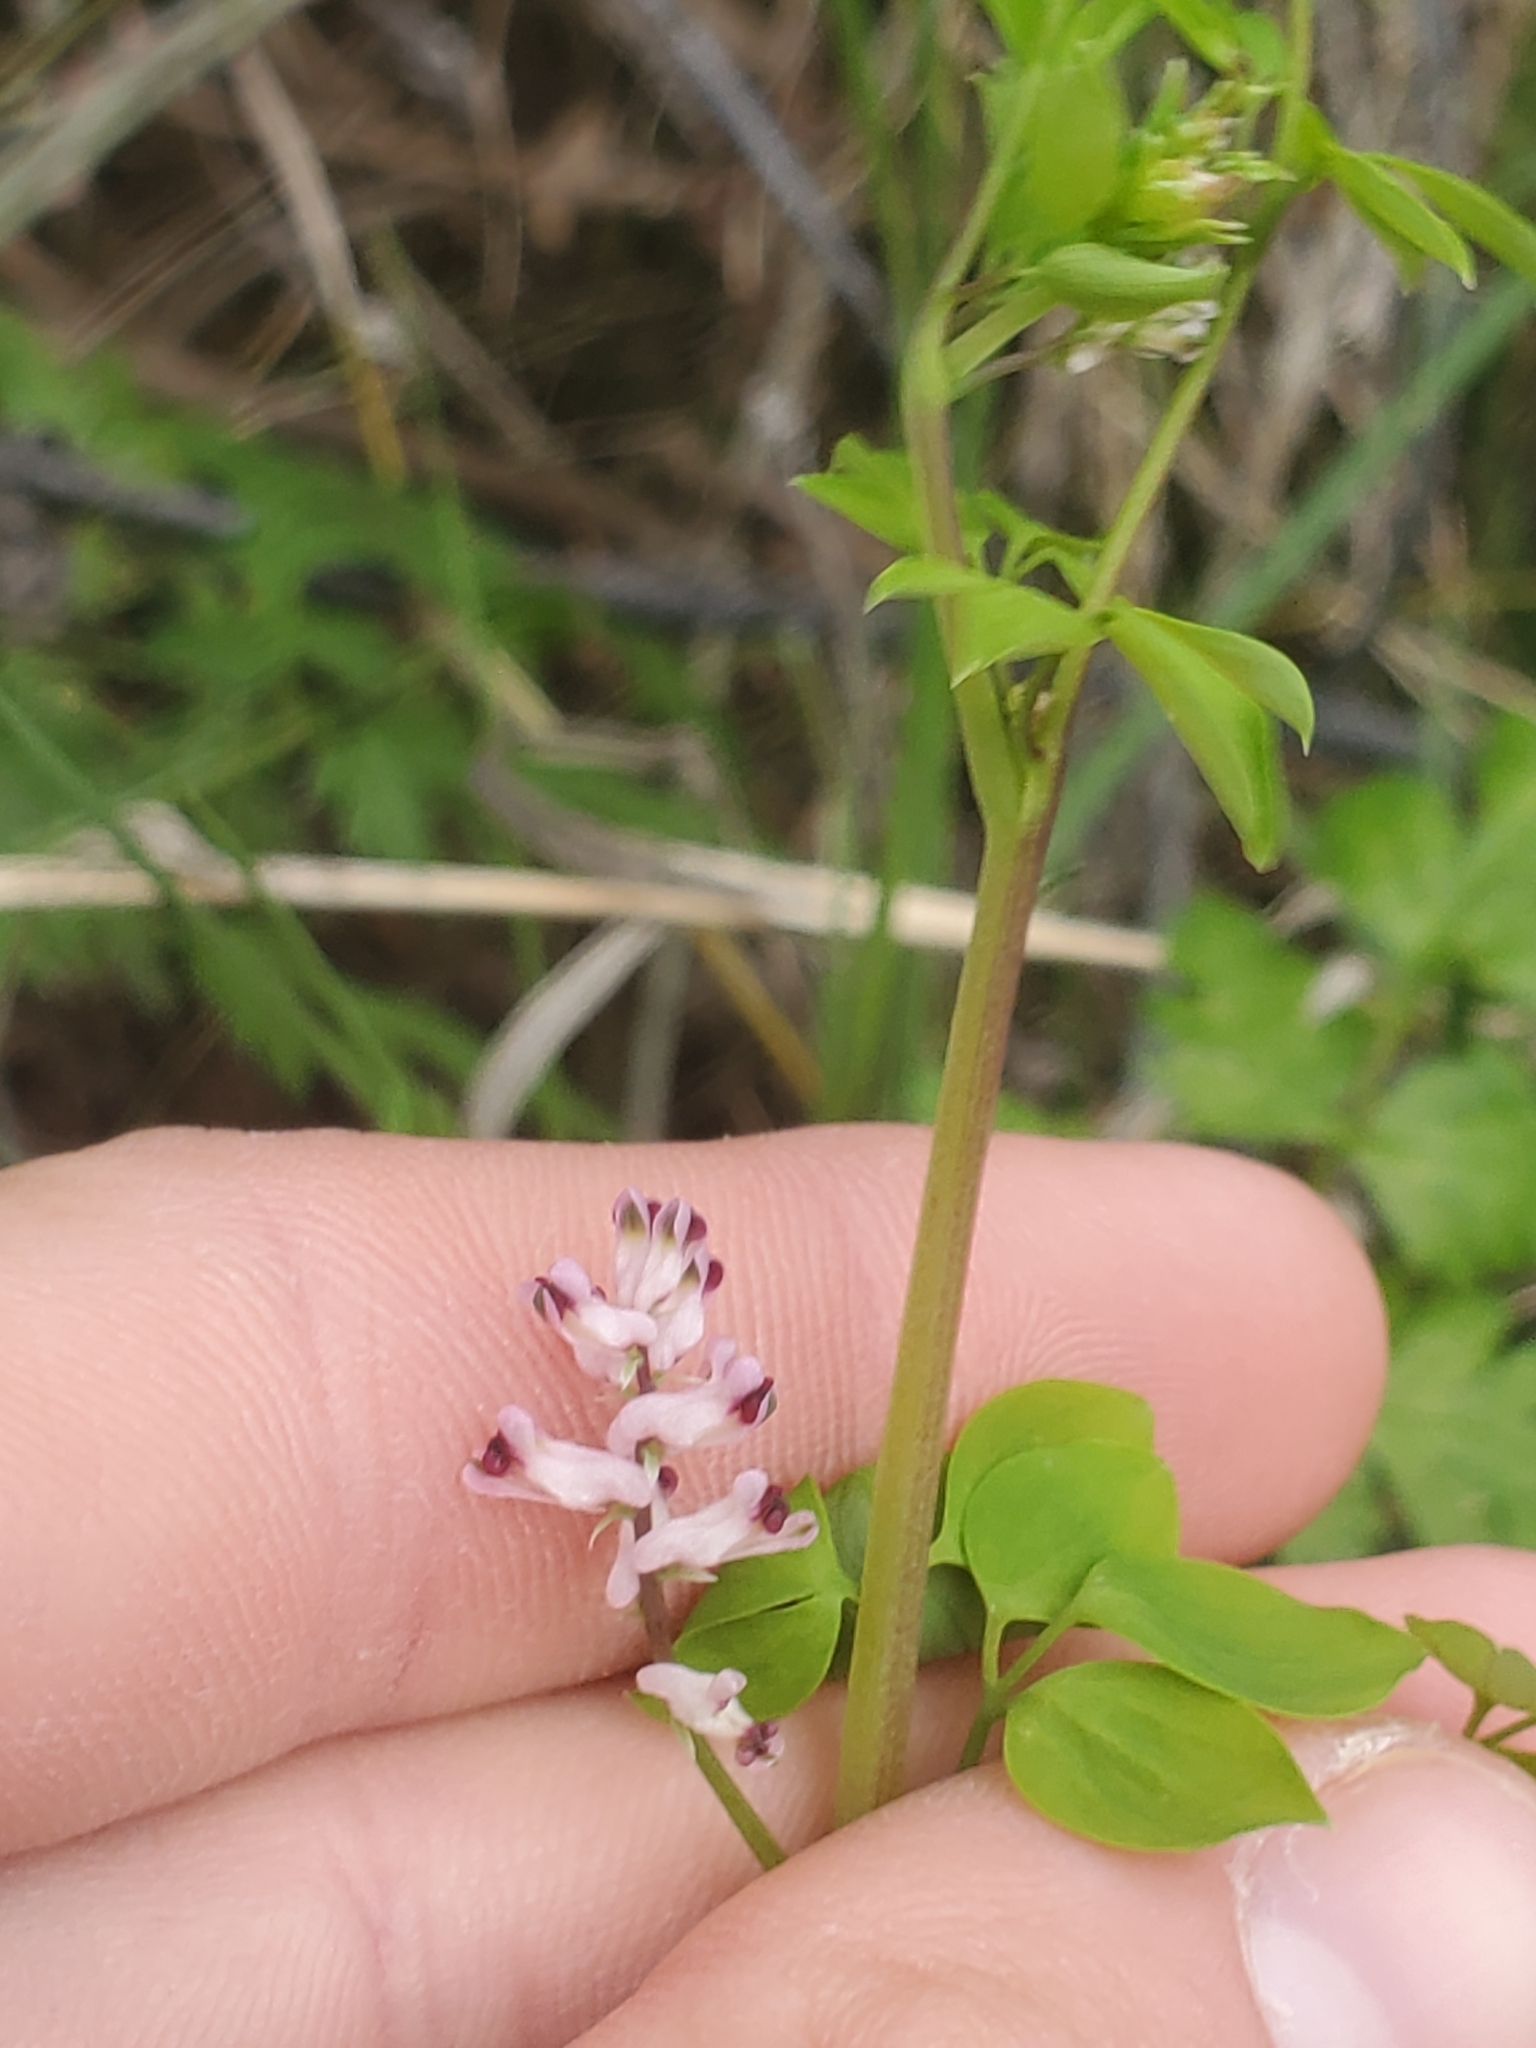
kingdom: Plantae
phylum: Tracheophyta
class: Magnoliopsida
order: Ranunculales
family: Papaveraceae
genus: Fumaria
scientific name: Fumaria capreolata
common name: White ramping-fumitory
